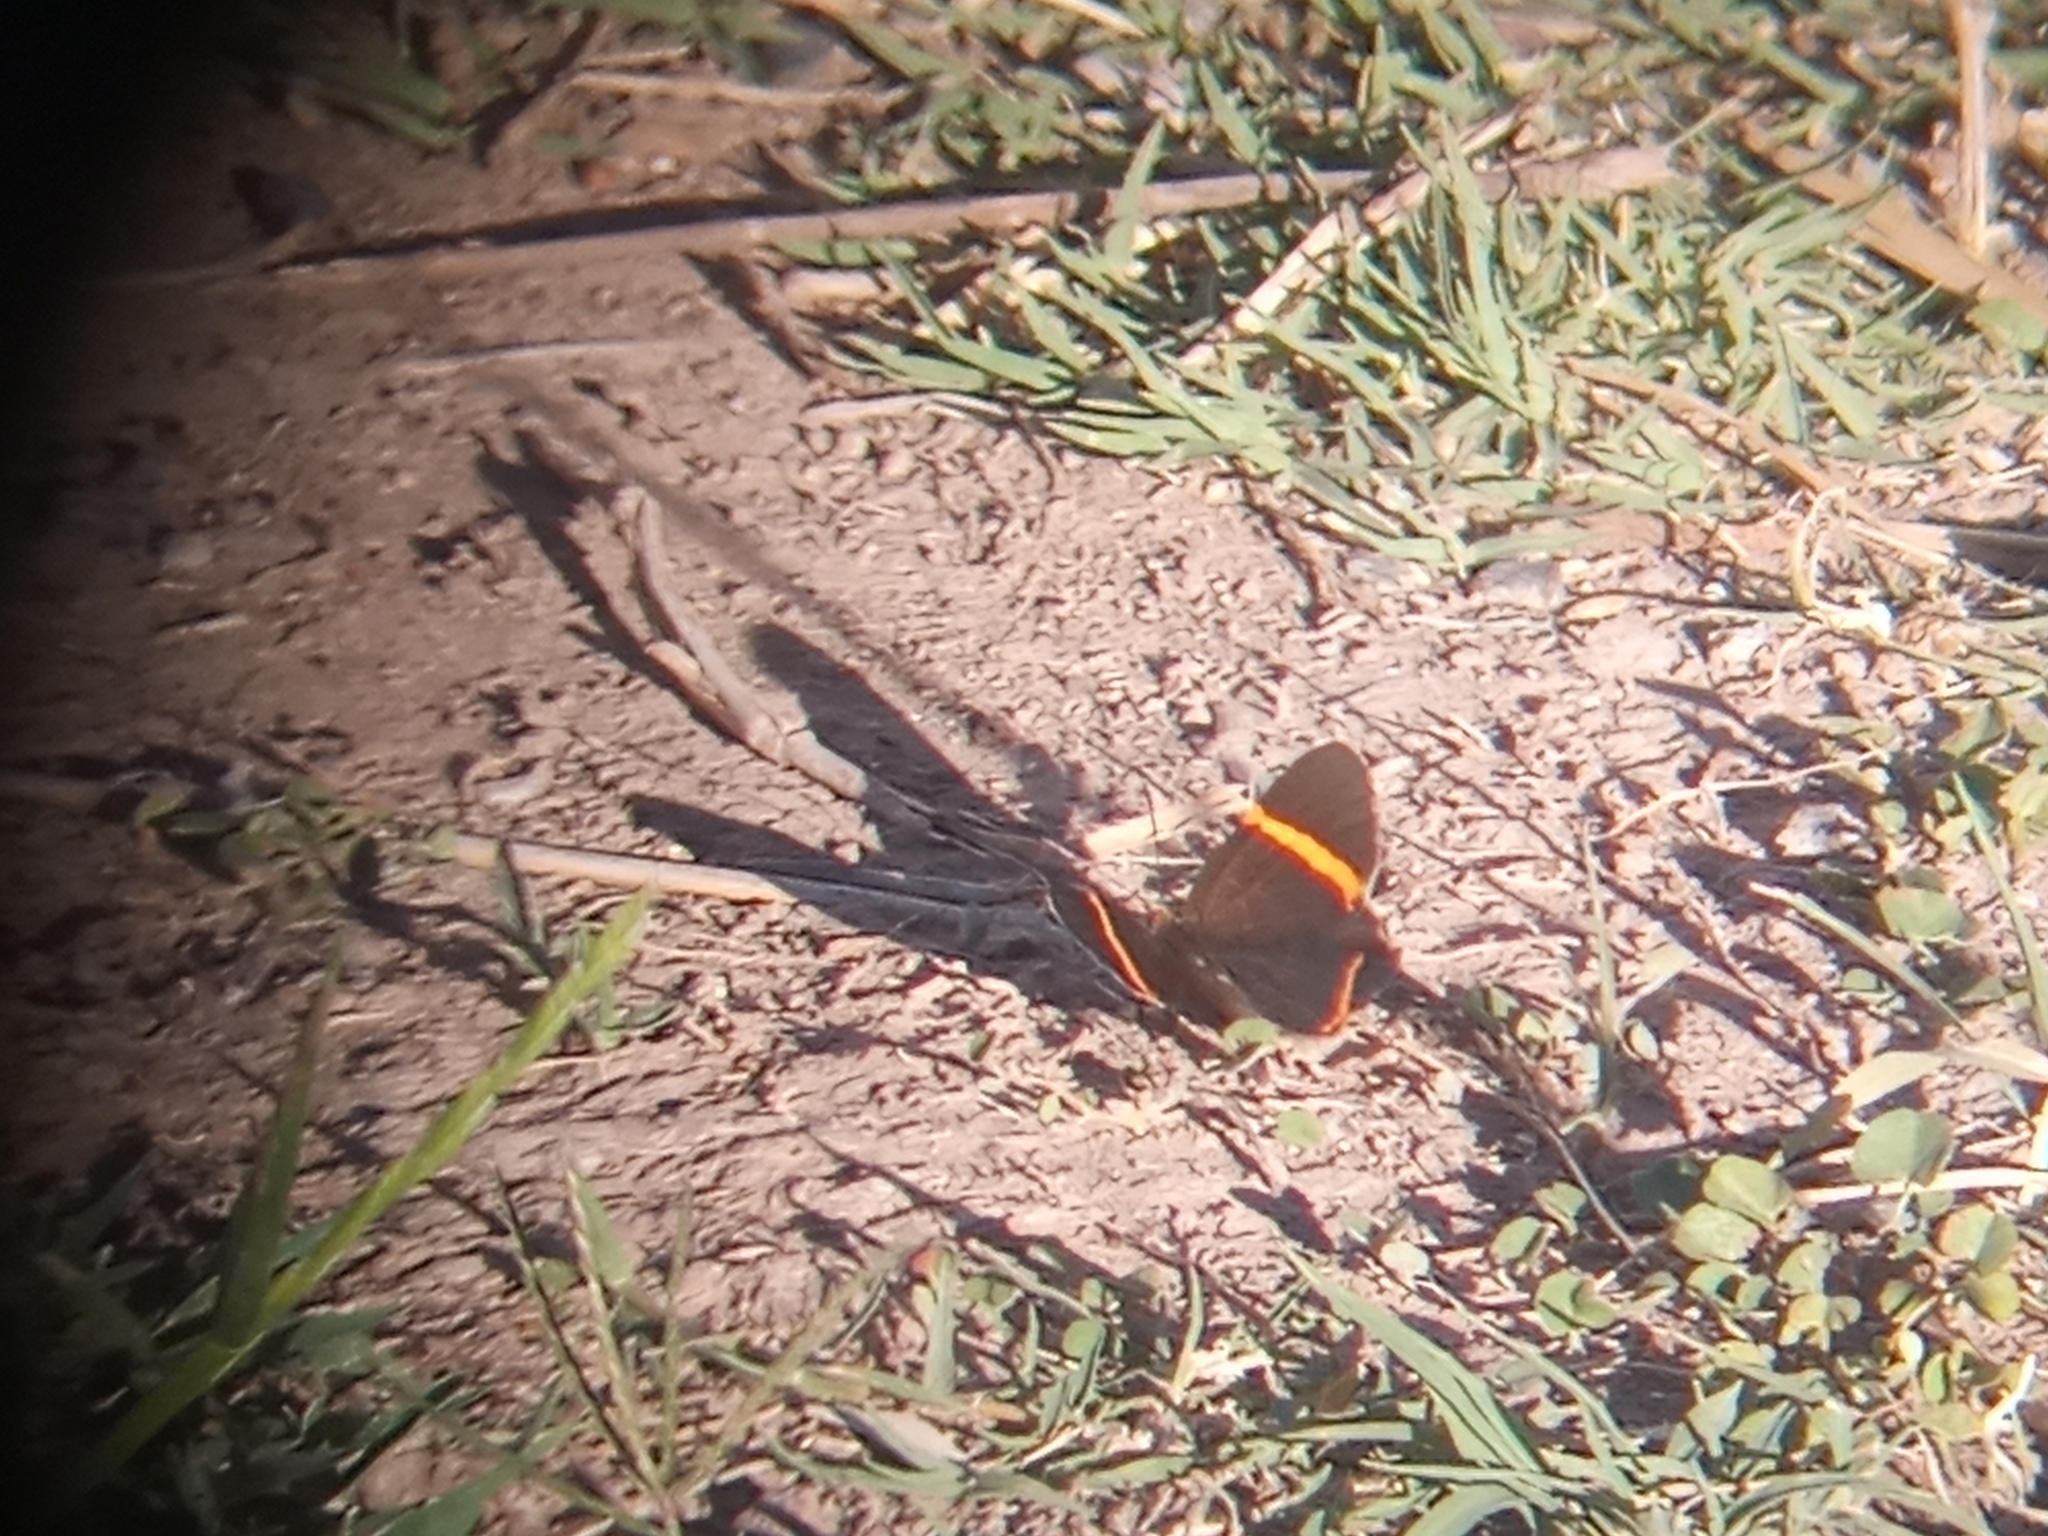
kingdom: Animalia
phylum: Arthropoda
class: Insecta
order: Lepidoptera
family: Riodinidae
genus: Riodina
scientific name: Riodina lysippoides
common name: Little dancer metalmark
